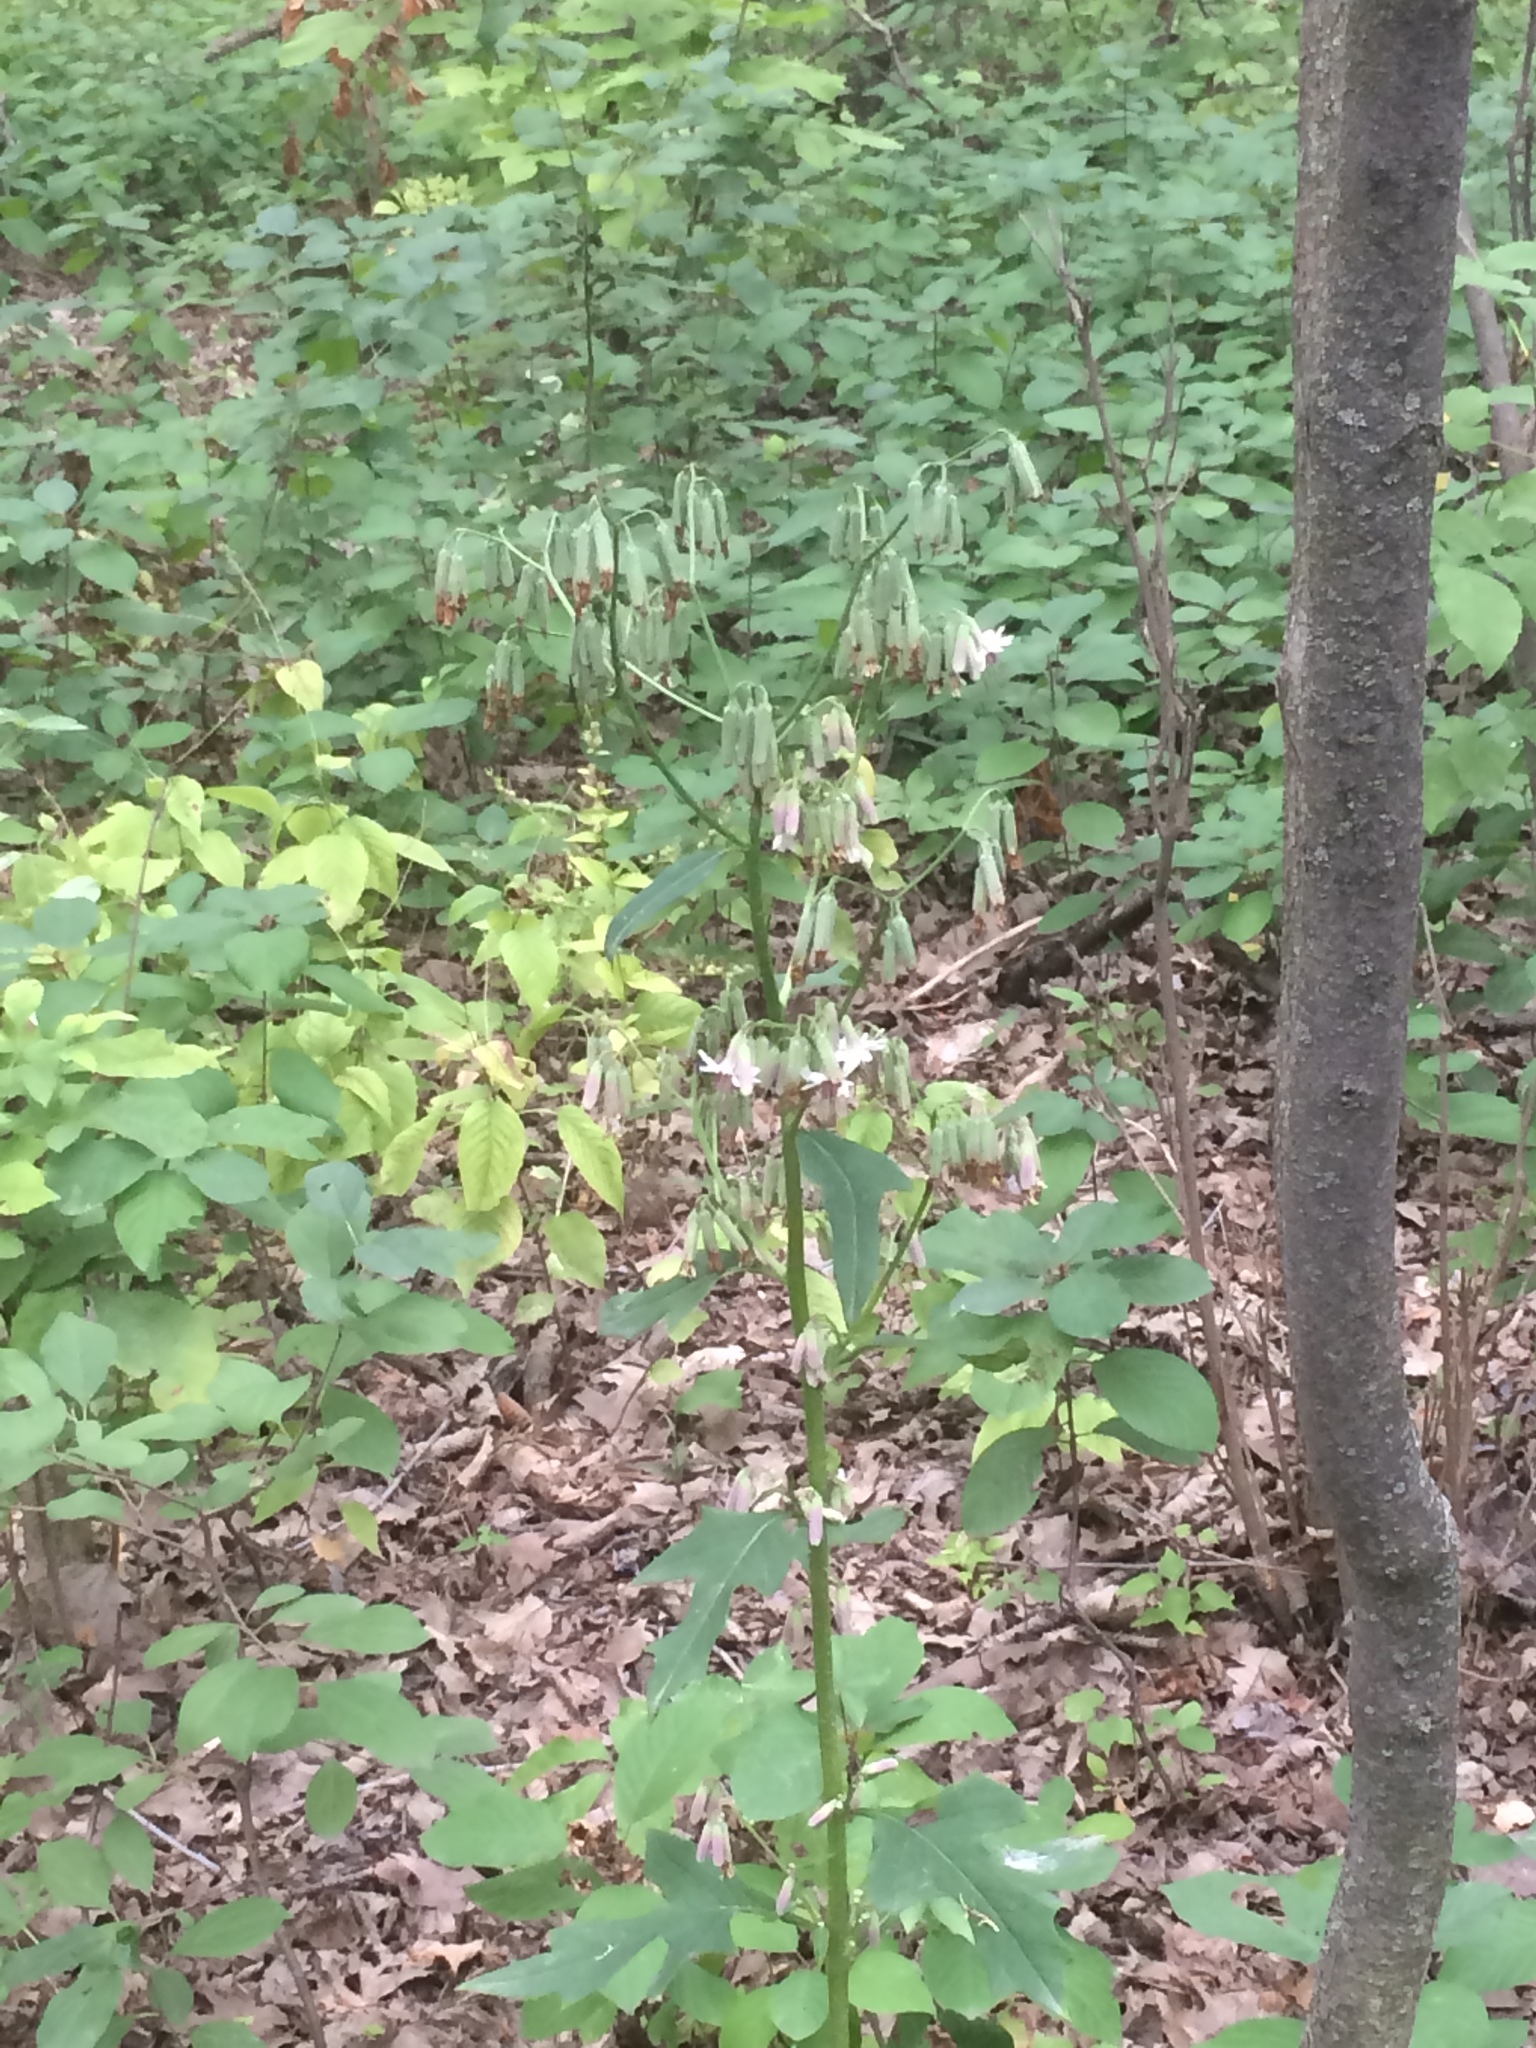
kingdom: Plantae
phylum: Tracheophyta
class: Magnoliopsida
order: Asterales
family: Asteraceae
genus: Nabalus
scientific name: Nabalus albus
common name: White rattlesnakeroot
